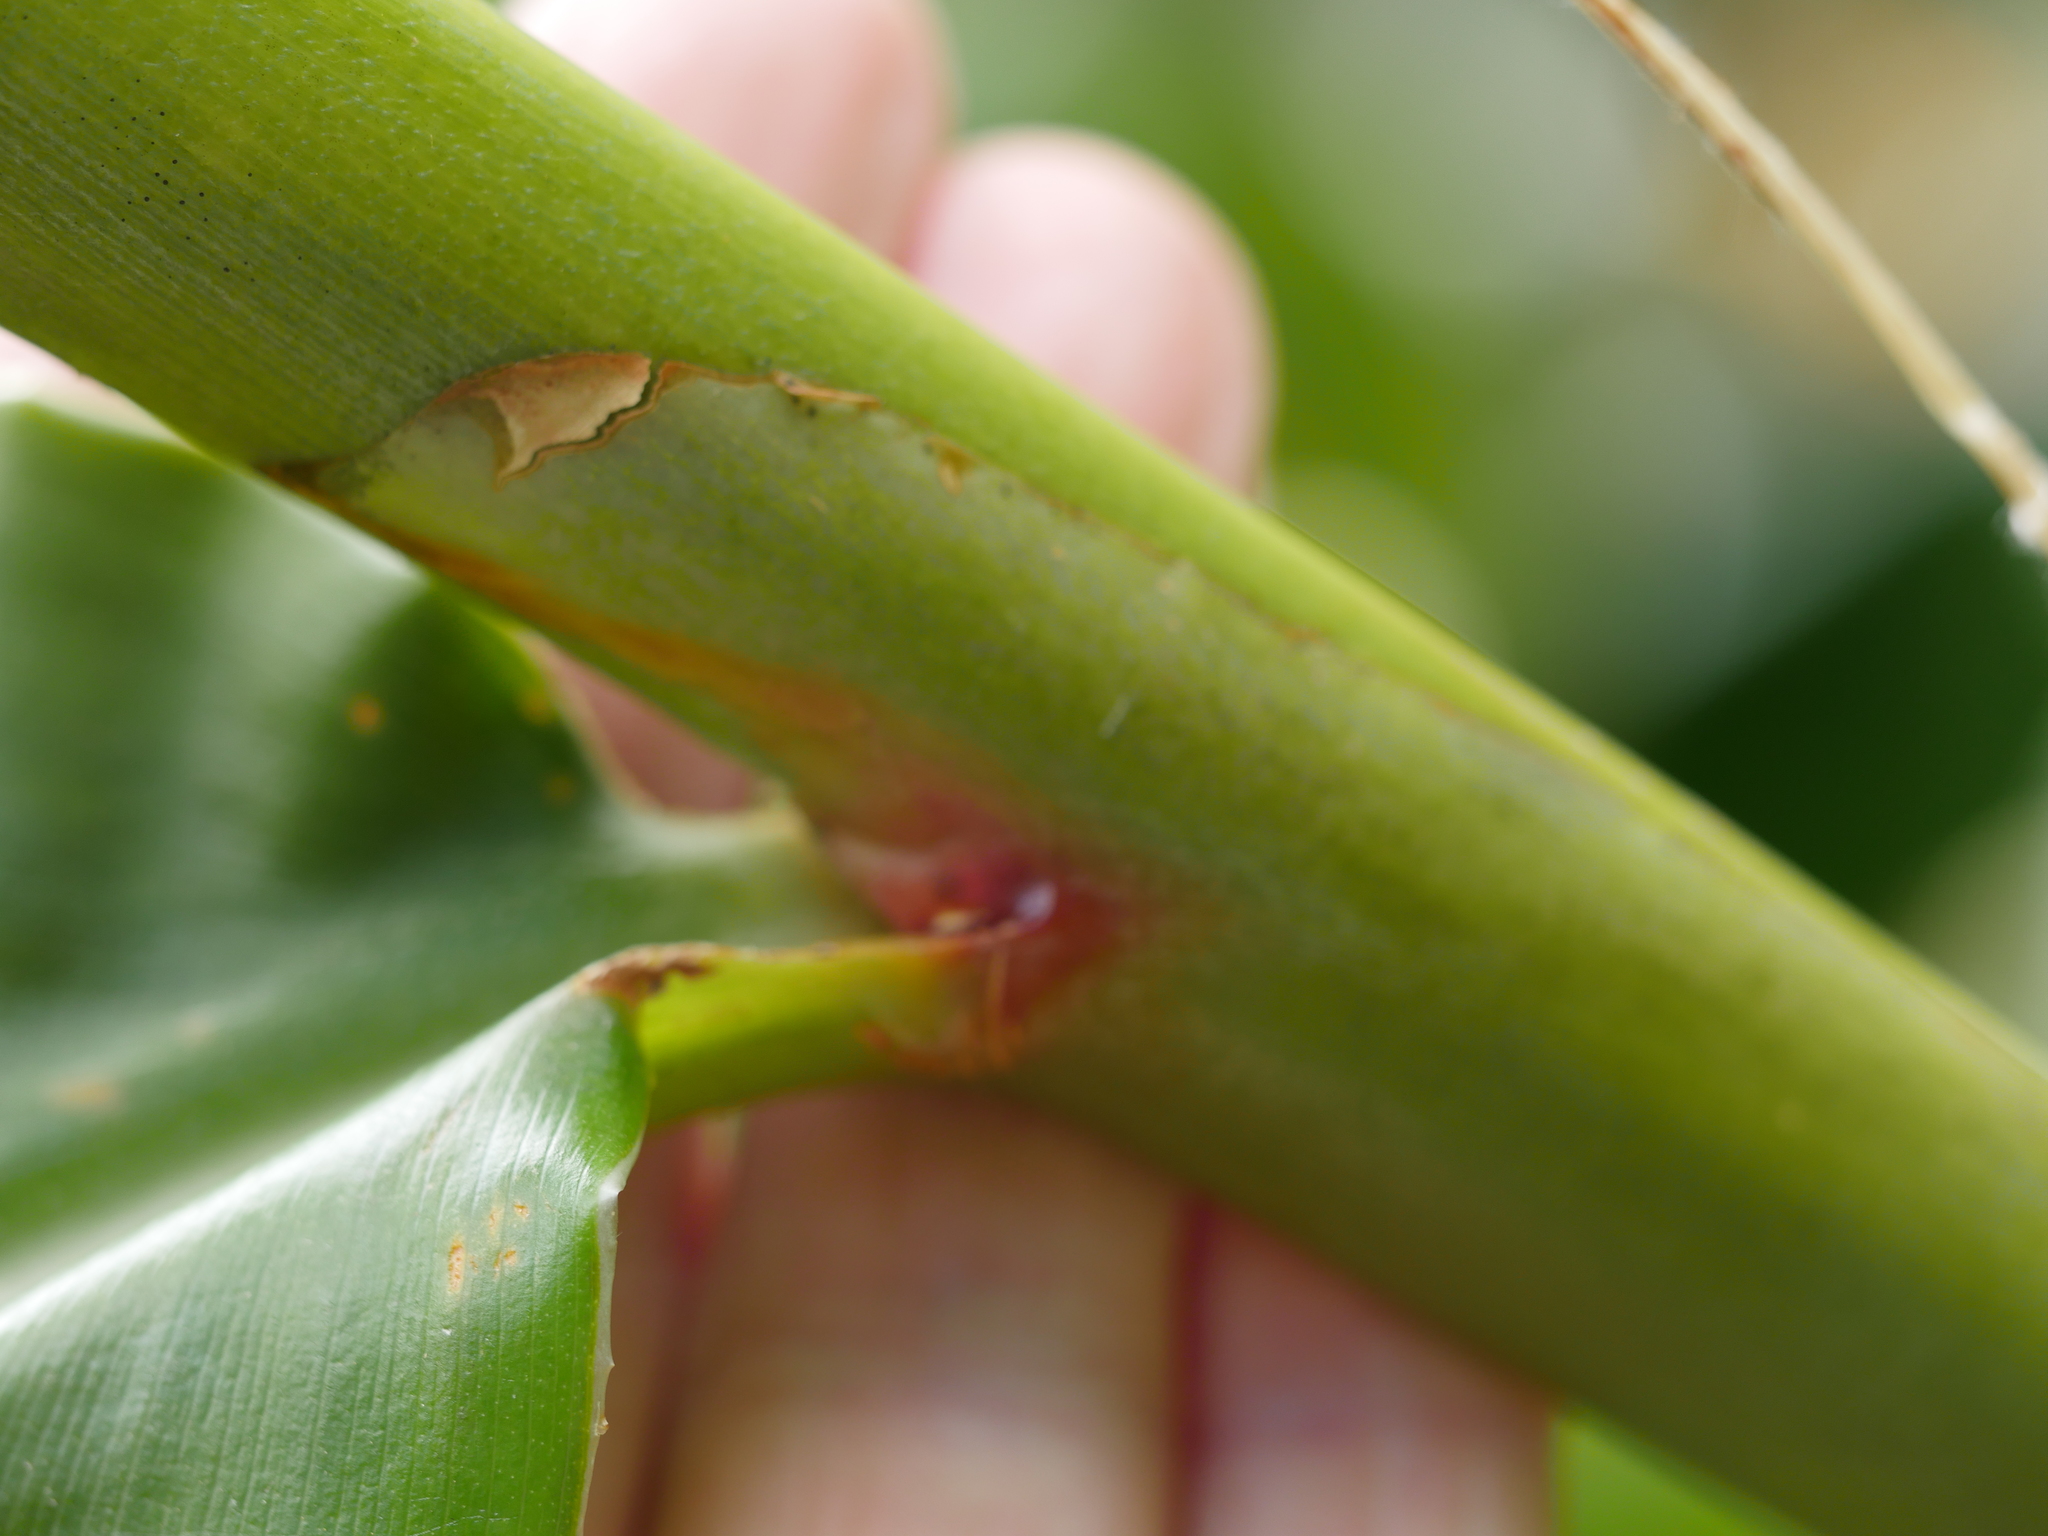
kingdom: Plantae
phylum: Tracheophyta
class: Liliopsida
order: Zingiberales
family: Zingiberaceae
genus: Hedychium
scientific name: Hedychium gardnerianum
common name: Himalayan ginger
